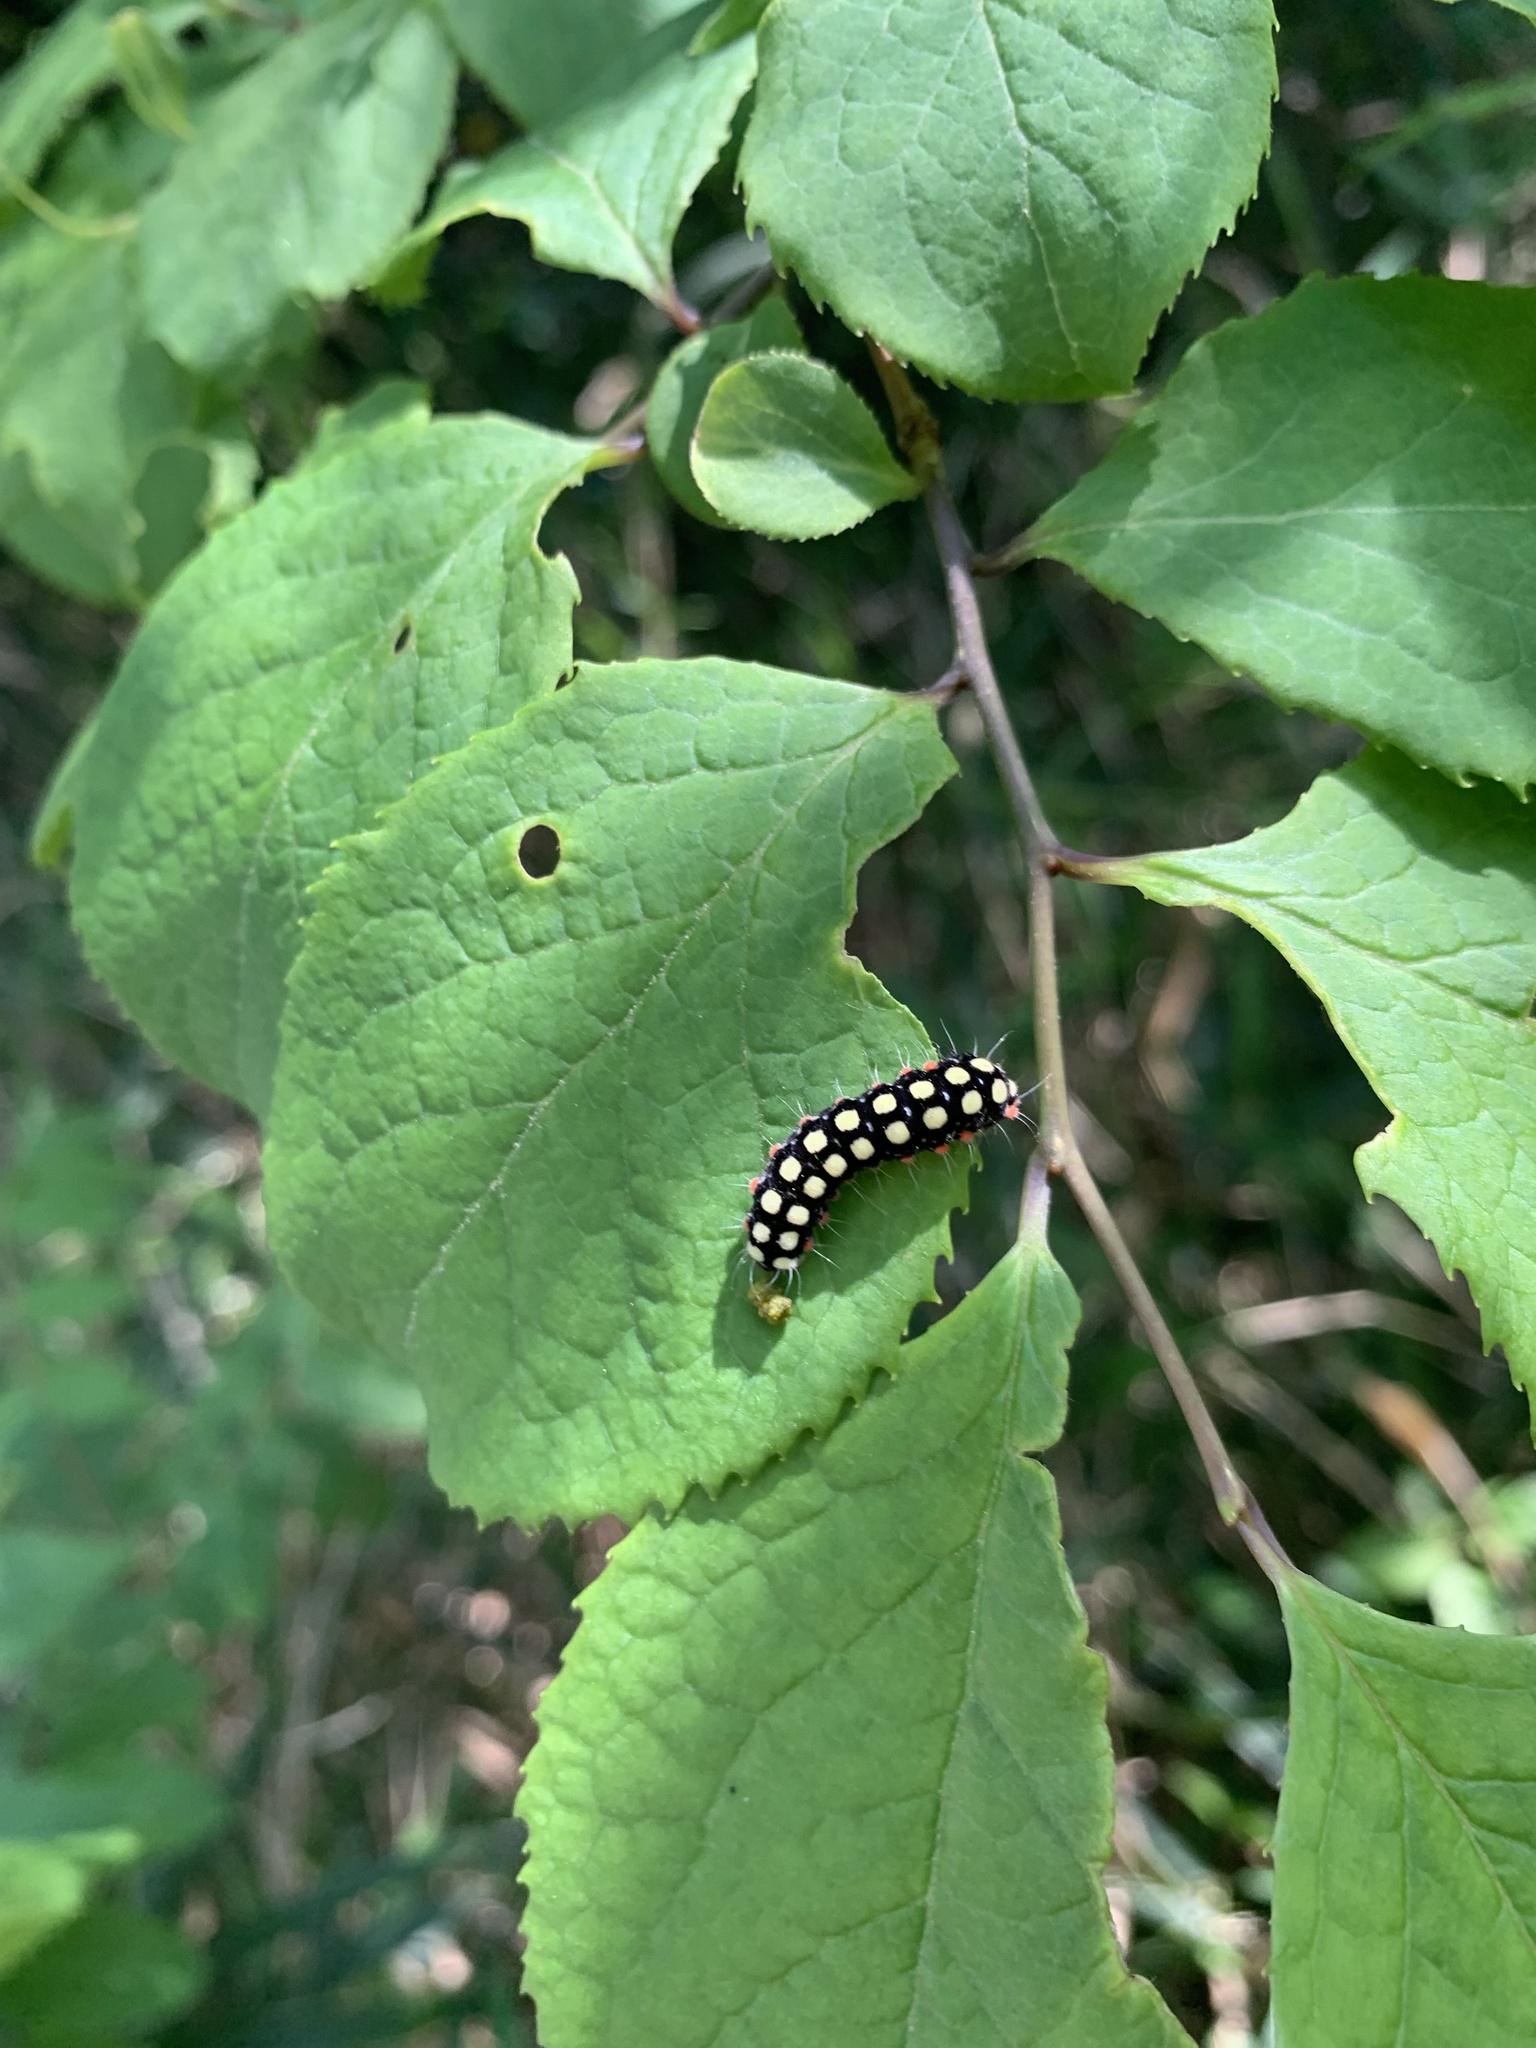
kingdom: Animalia
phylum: Arthropoda
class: Insecta
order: Lepidoptera
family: Zygaenidae
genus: Chalcosia
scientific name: Chalcosia remota
